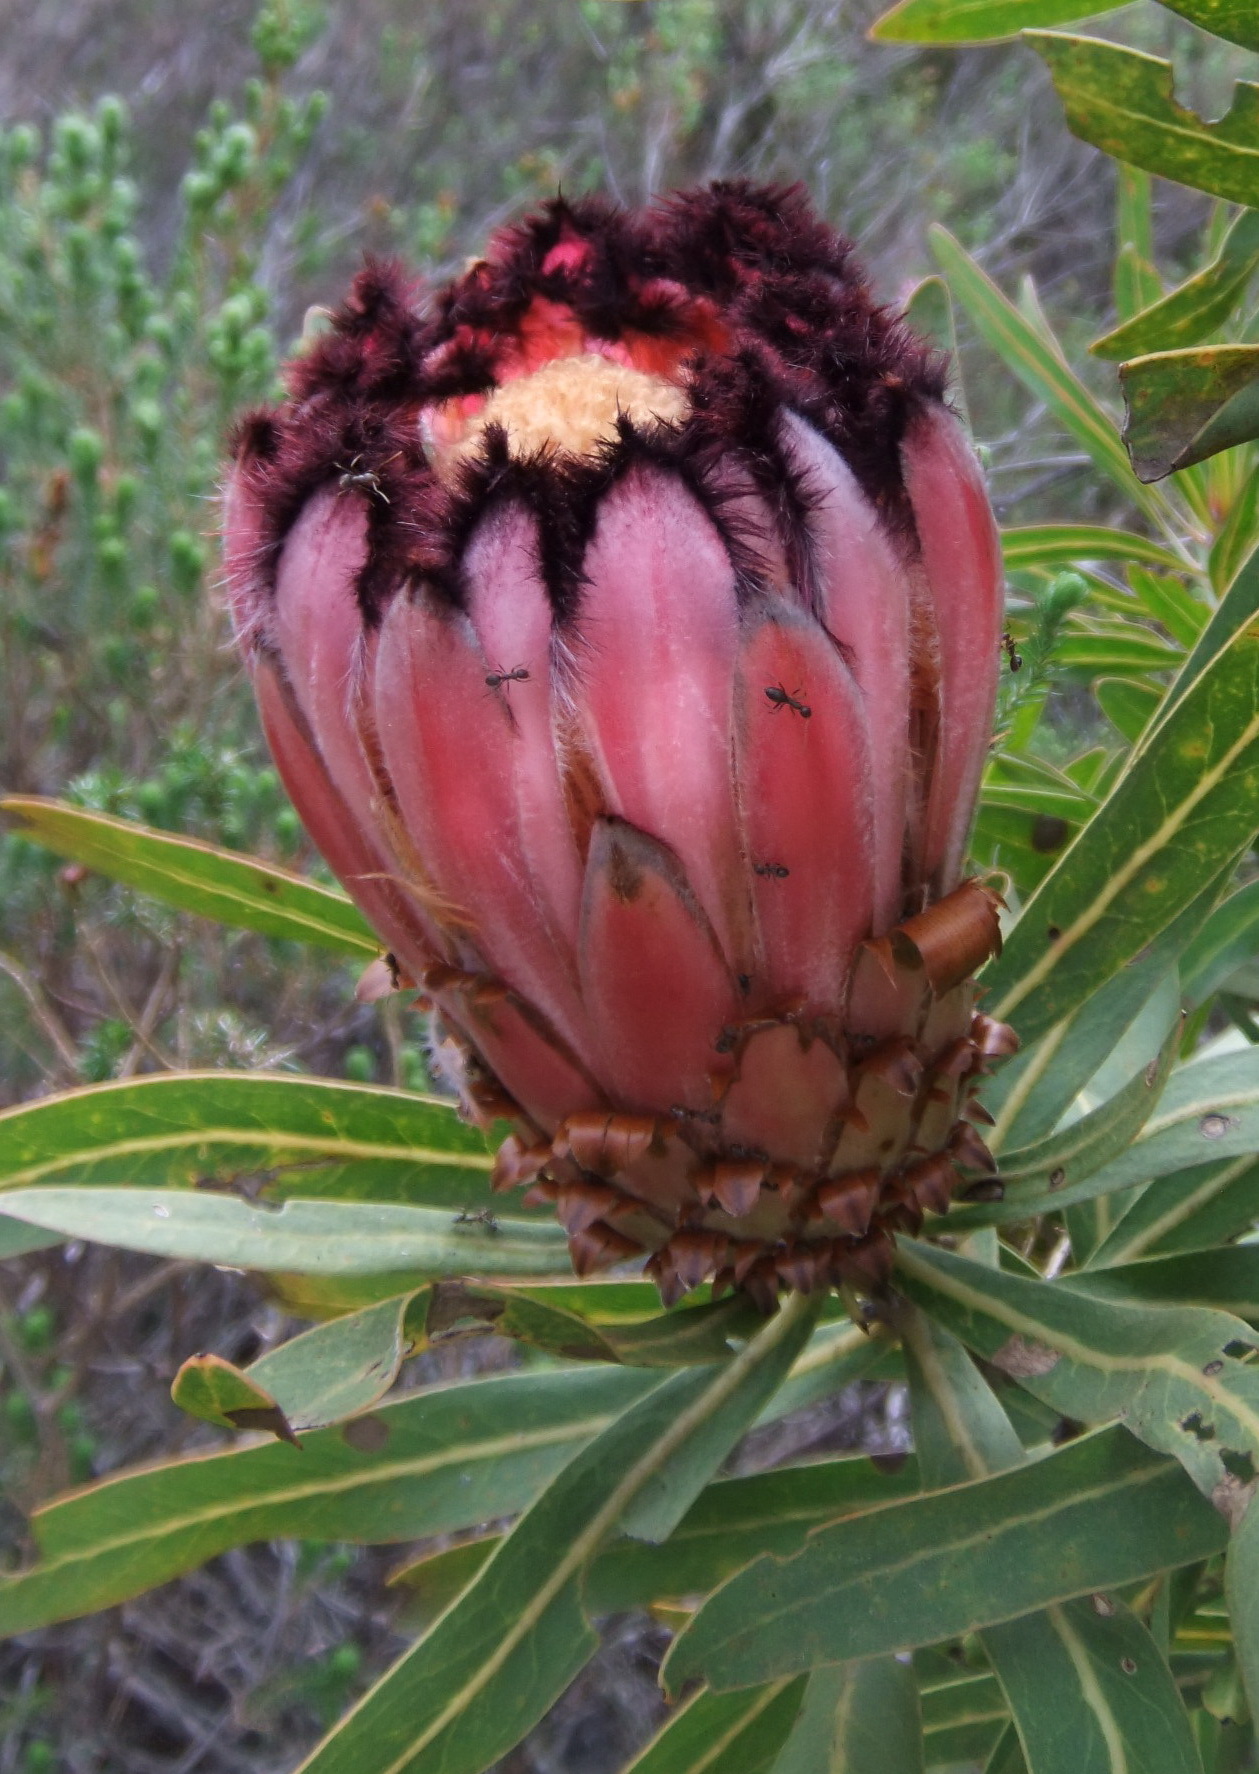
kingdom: Plantae
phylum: Tracheophyta
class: Magnoliopsida
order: Proteales
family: Proteaceae
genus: Protea
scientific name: Protea neriifolia
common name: Blue sugarbush
